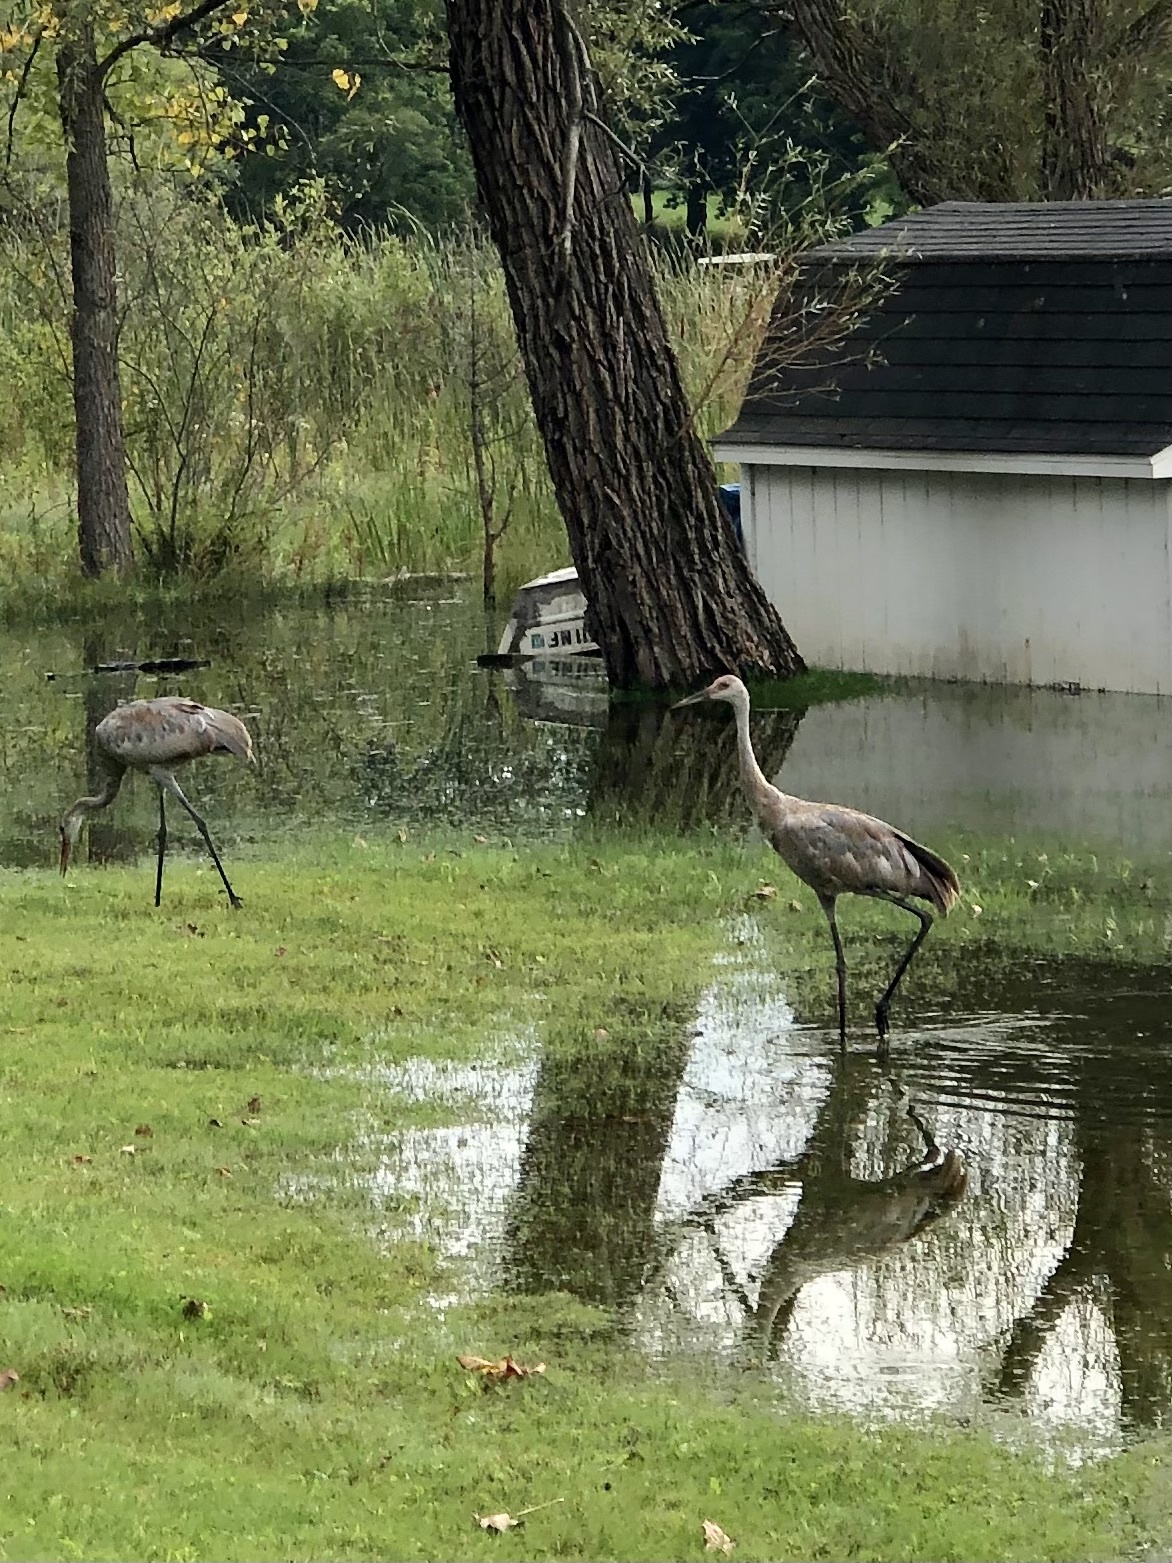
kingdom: Animalia
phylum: Chordata
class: Aves
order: Gruiformes
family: Gruidae
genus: Grus
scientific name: Grus canadensis
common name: Sandhill crane
